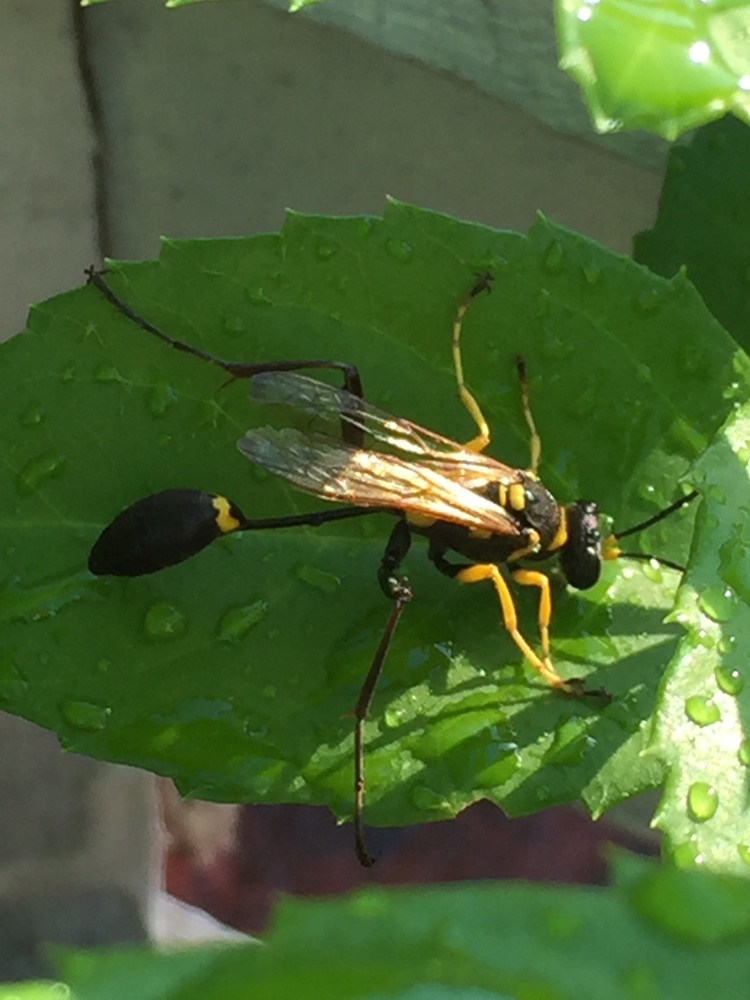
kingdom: Animalia
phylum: Arthropoda
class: Insecta
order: Hymenoptera
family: Sphecidae
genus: Sceliphron
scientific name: Sceliphron asiaticum
